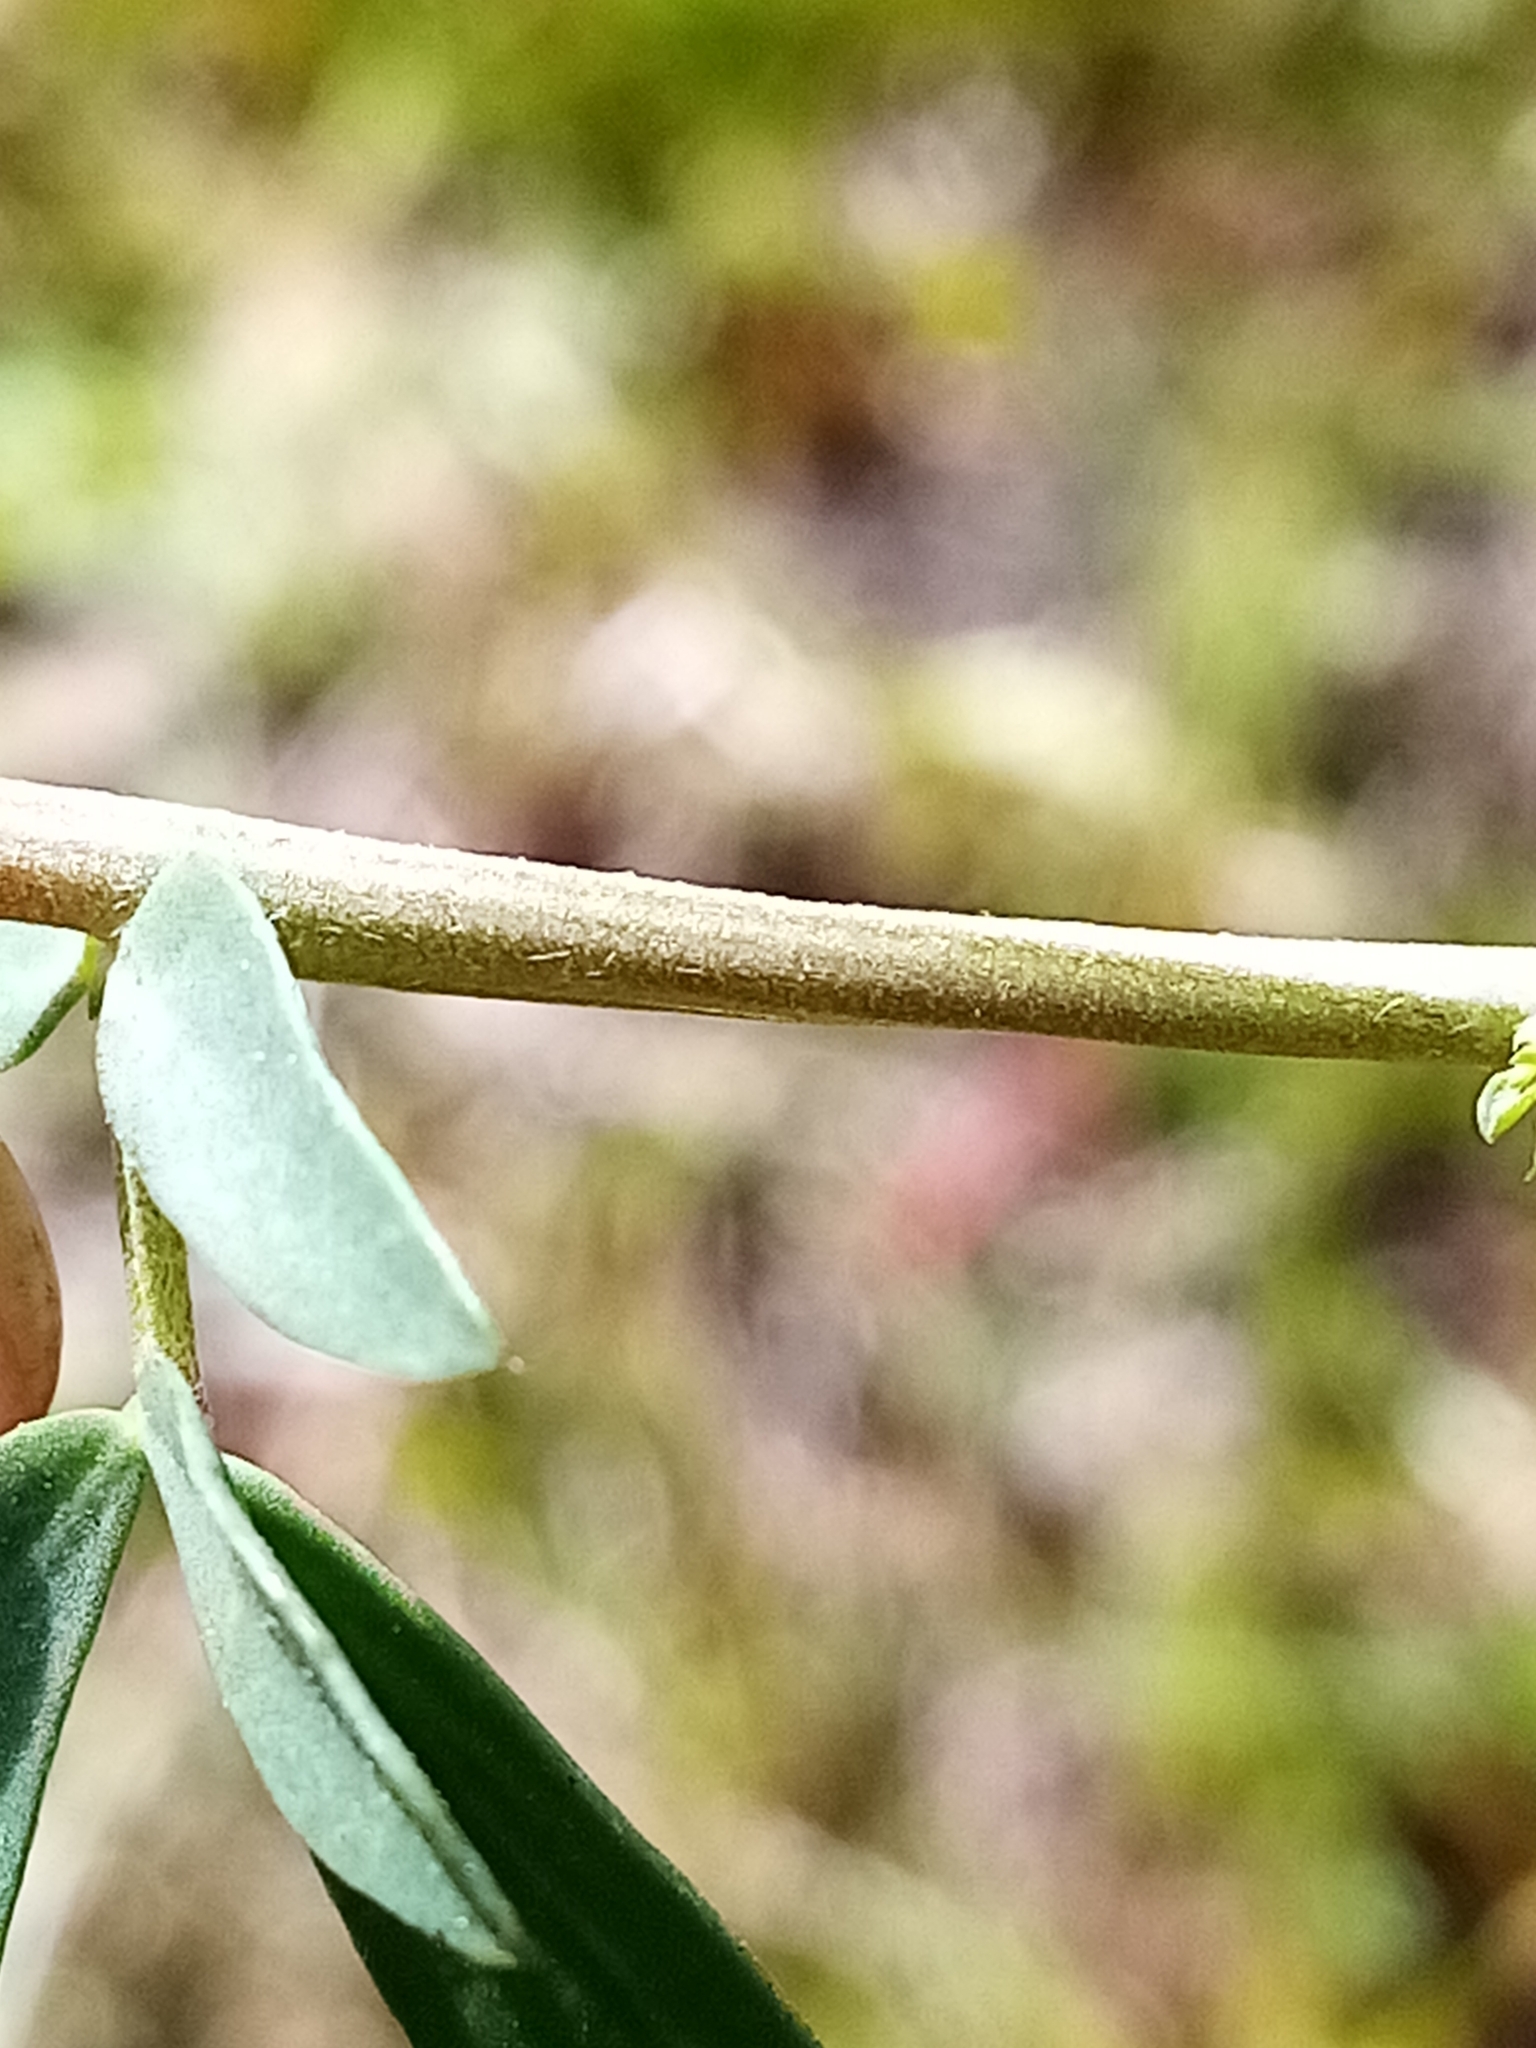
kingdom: Plantae
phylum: Tracheophyta
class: Magnoliopsida
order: Fabales
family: Fabaceae
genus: Lotus
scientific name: Lotus tenuis
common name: Narrow-leaved bird's-foot-trefoil
